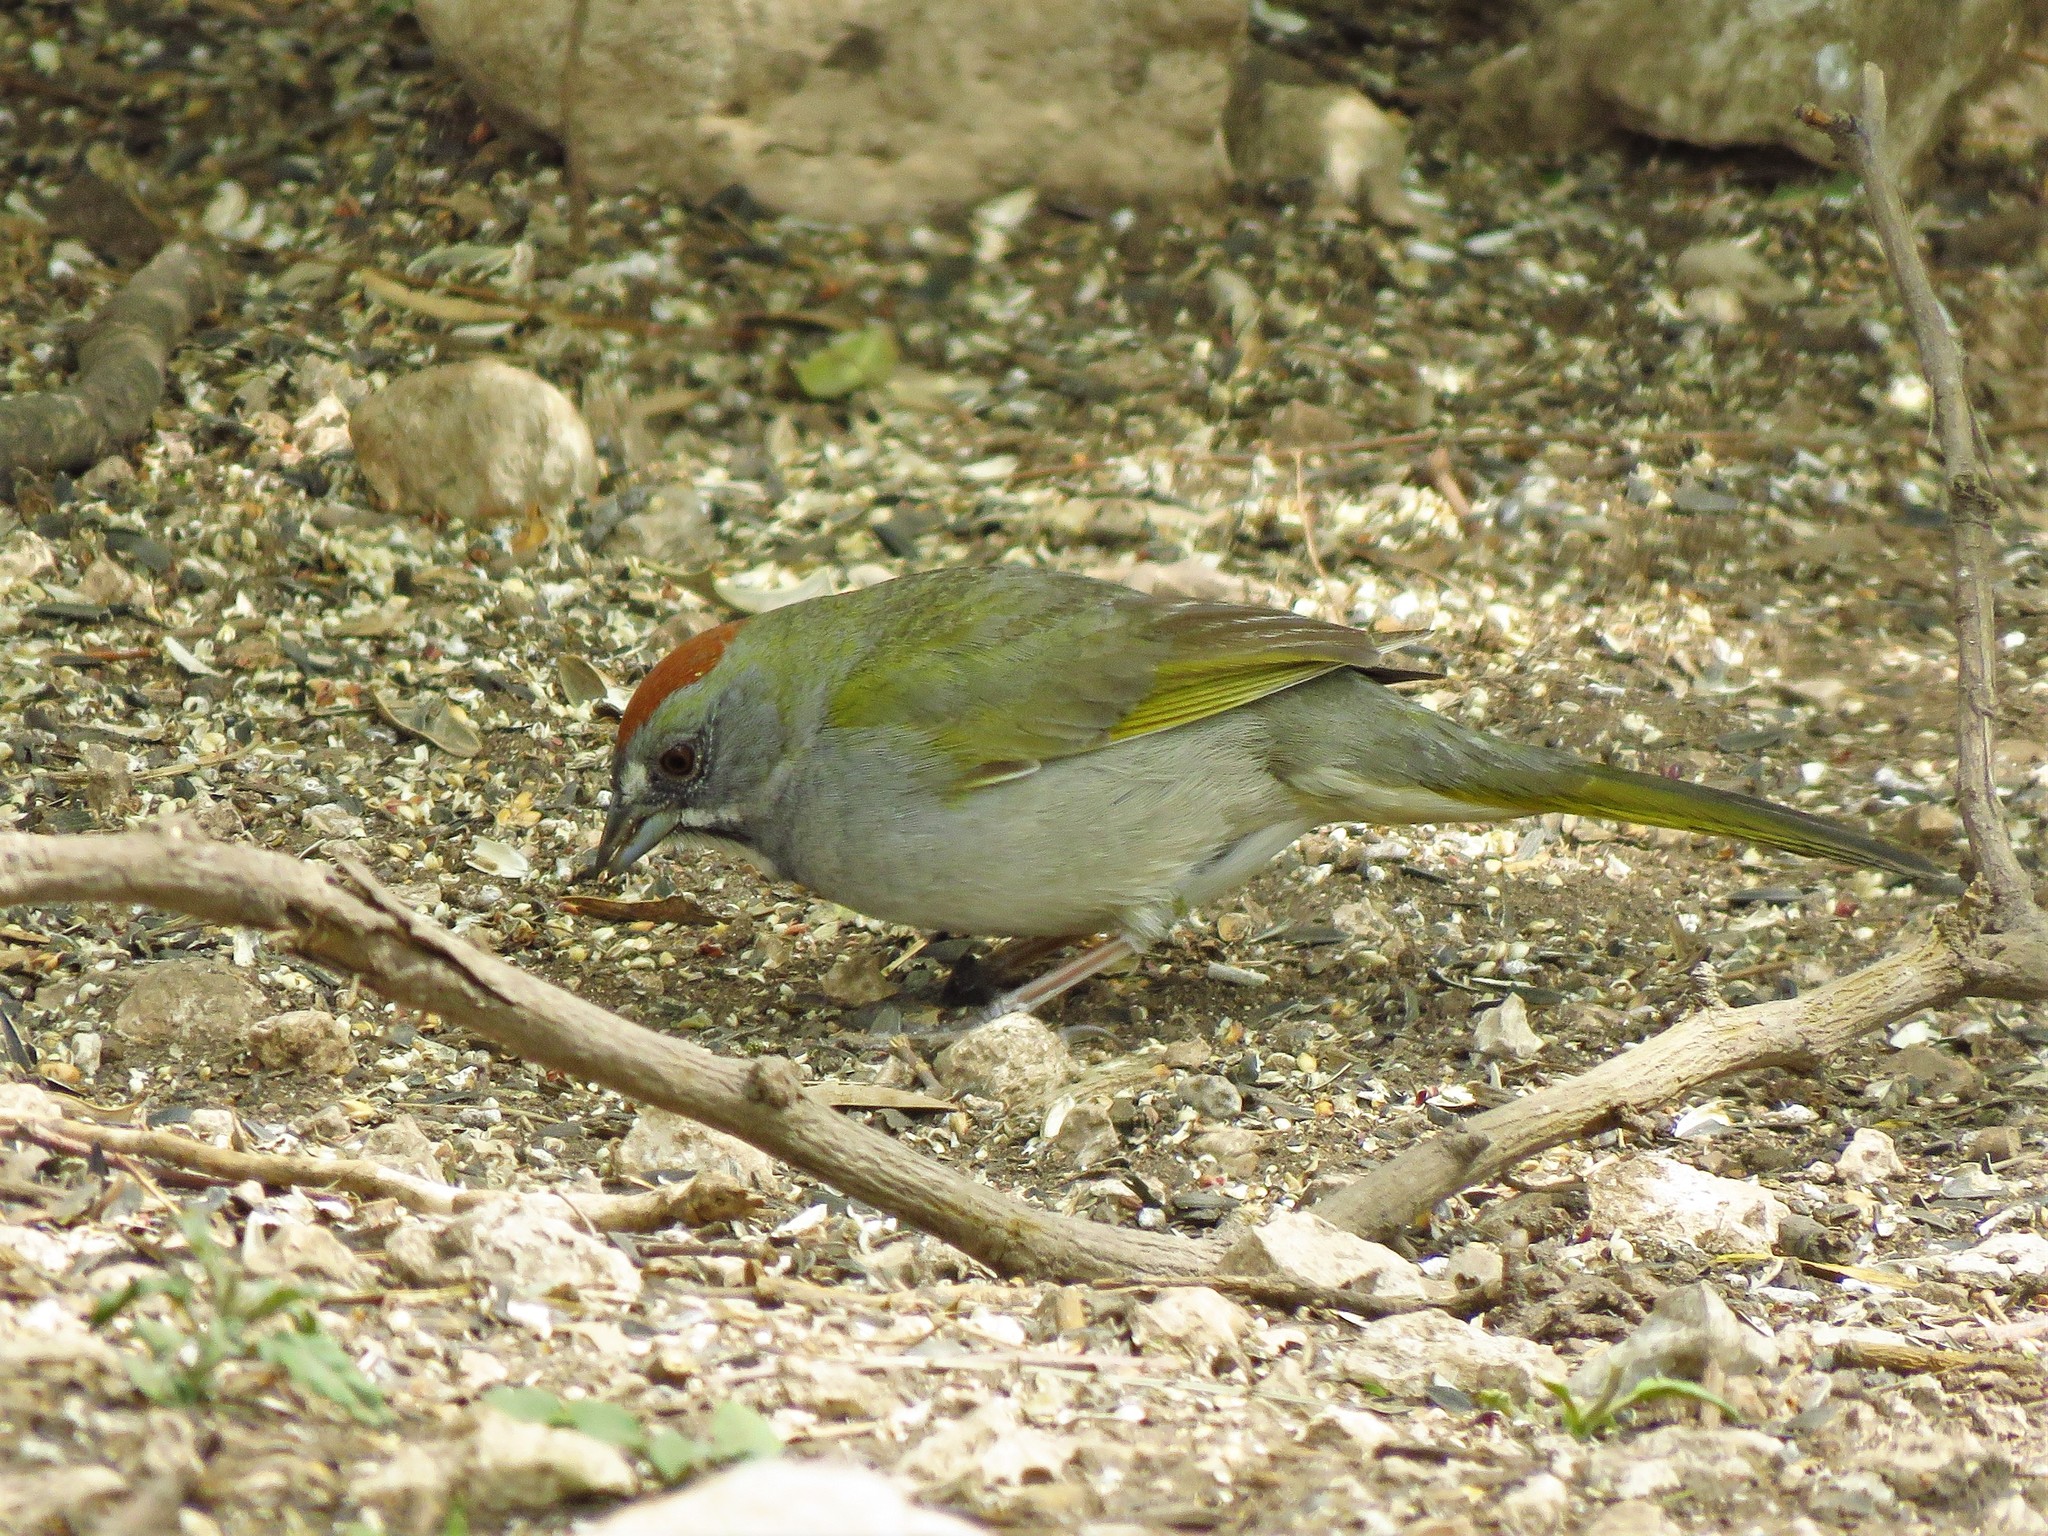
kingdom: Animalia
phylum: Chordata
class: Aves
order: Passeriformes
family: Passerellidae
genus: Pipilo
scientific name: Pipilo chlorurus
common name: Green-tailed towhee
